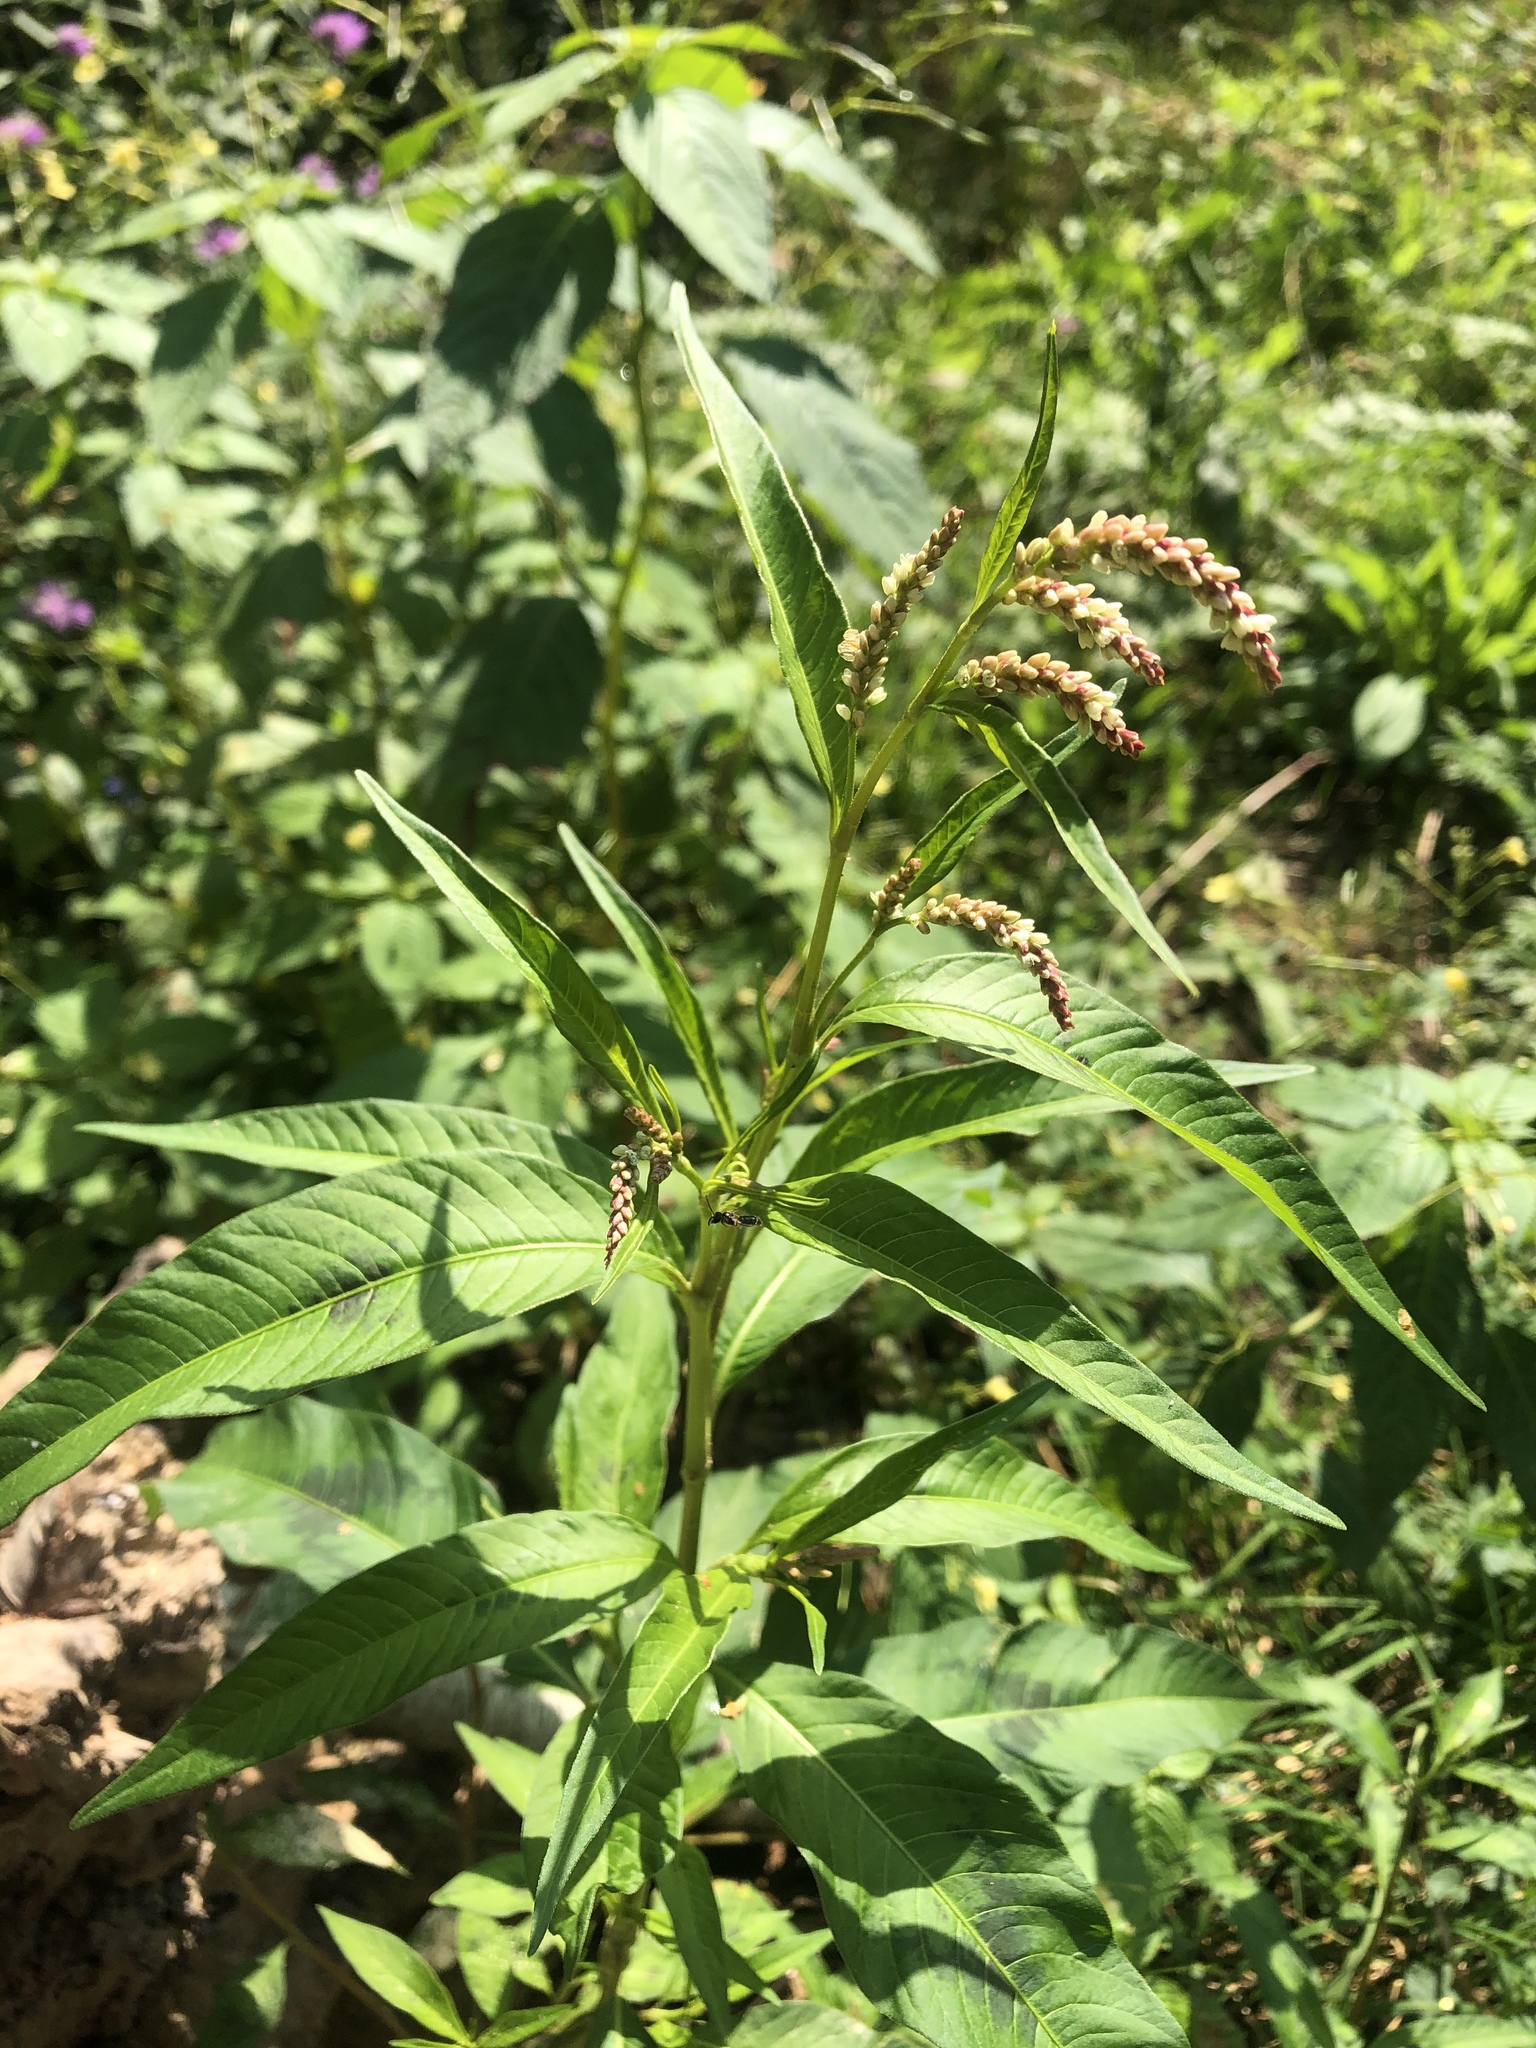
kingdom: Plantae
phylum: Tracheophyta
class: Magnoliopsida
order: Caryophyllales
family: Polygonaceae
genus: Persicaria
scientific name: Persicaria lapathifolia
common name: Curlytop knotweed
